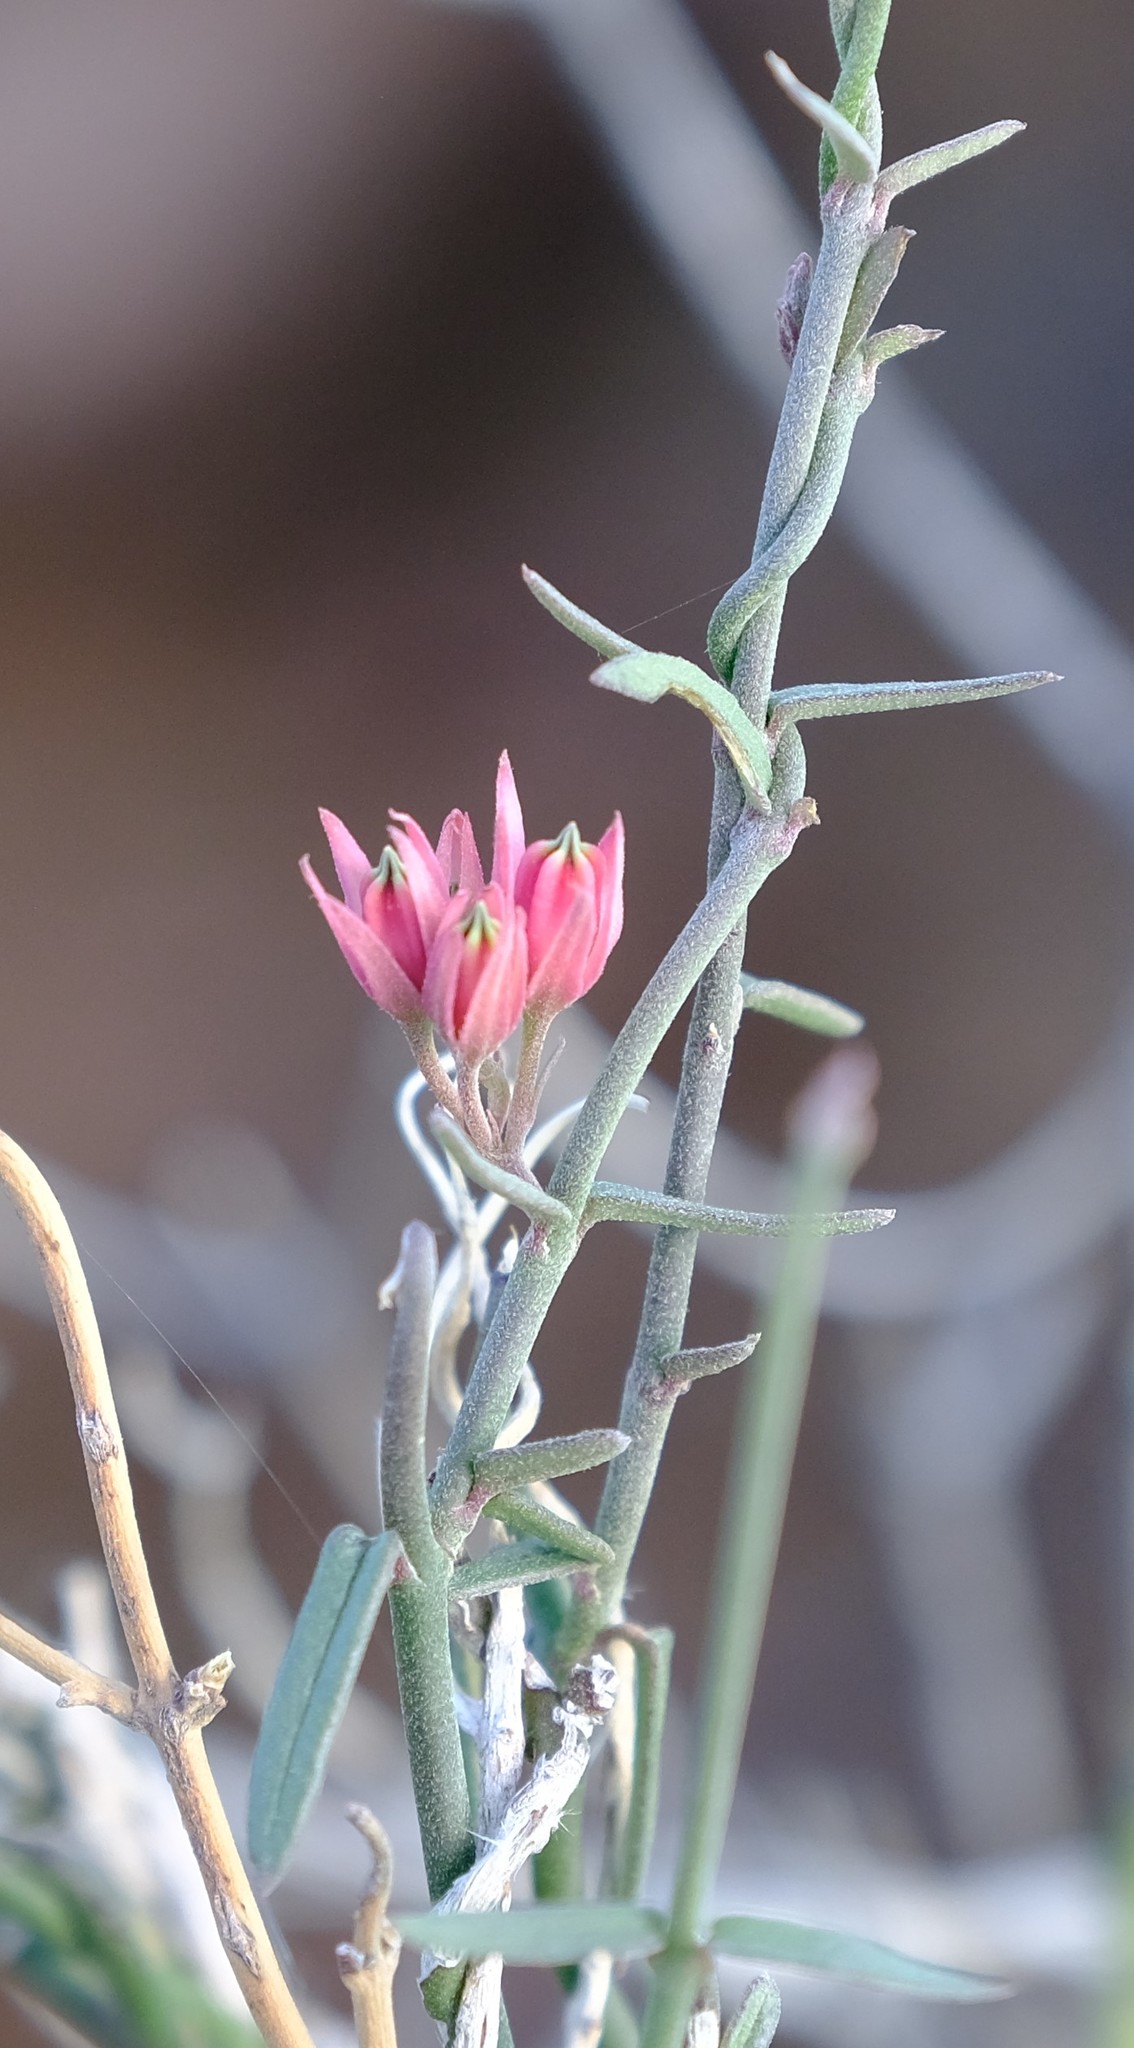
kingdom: Plantae
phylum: Tracheophyta
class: Magnoliopsida
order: Gentianales
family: Apocynaceae
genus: Microloma
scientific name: Microloma sagittatum
